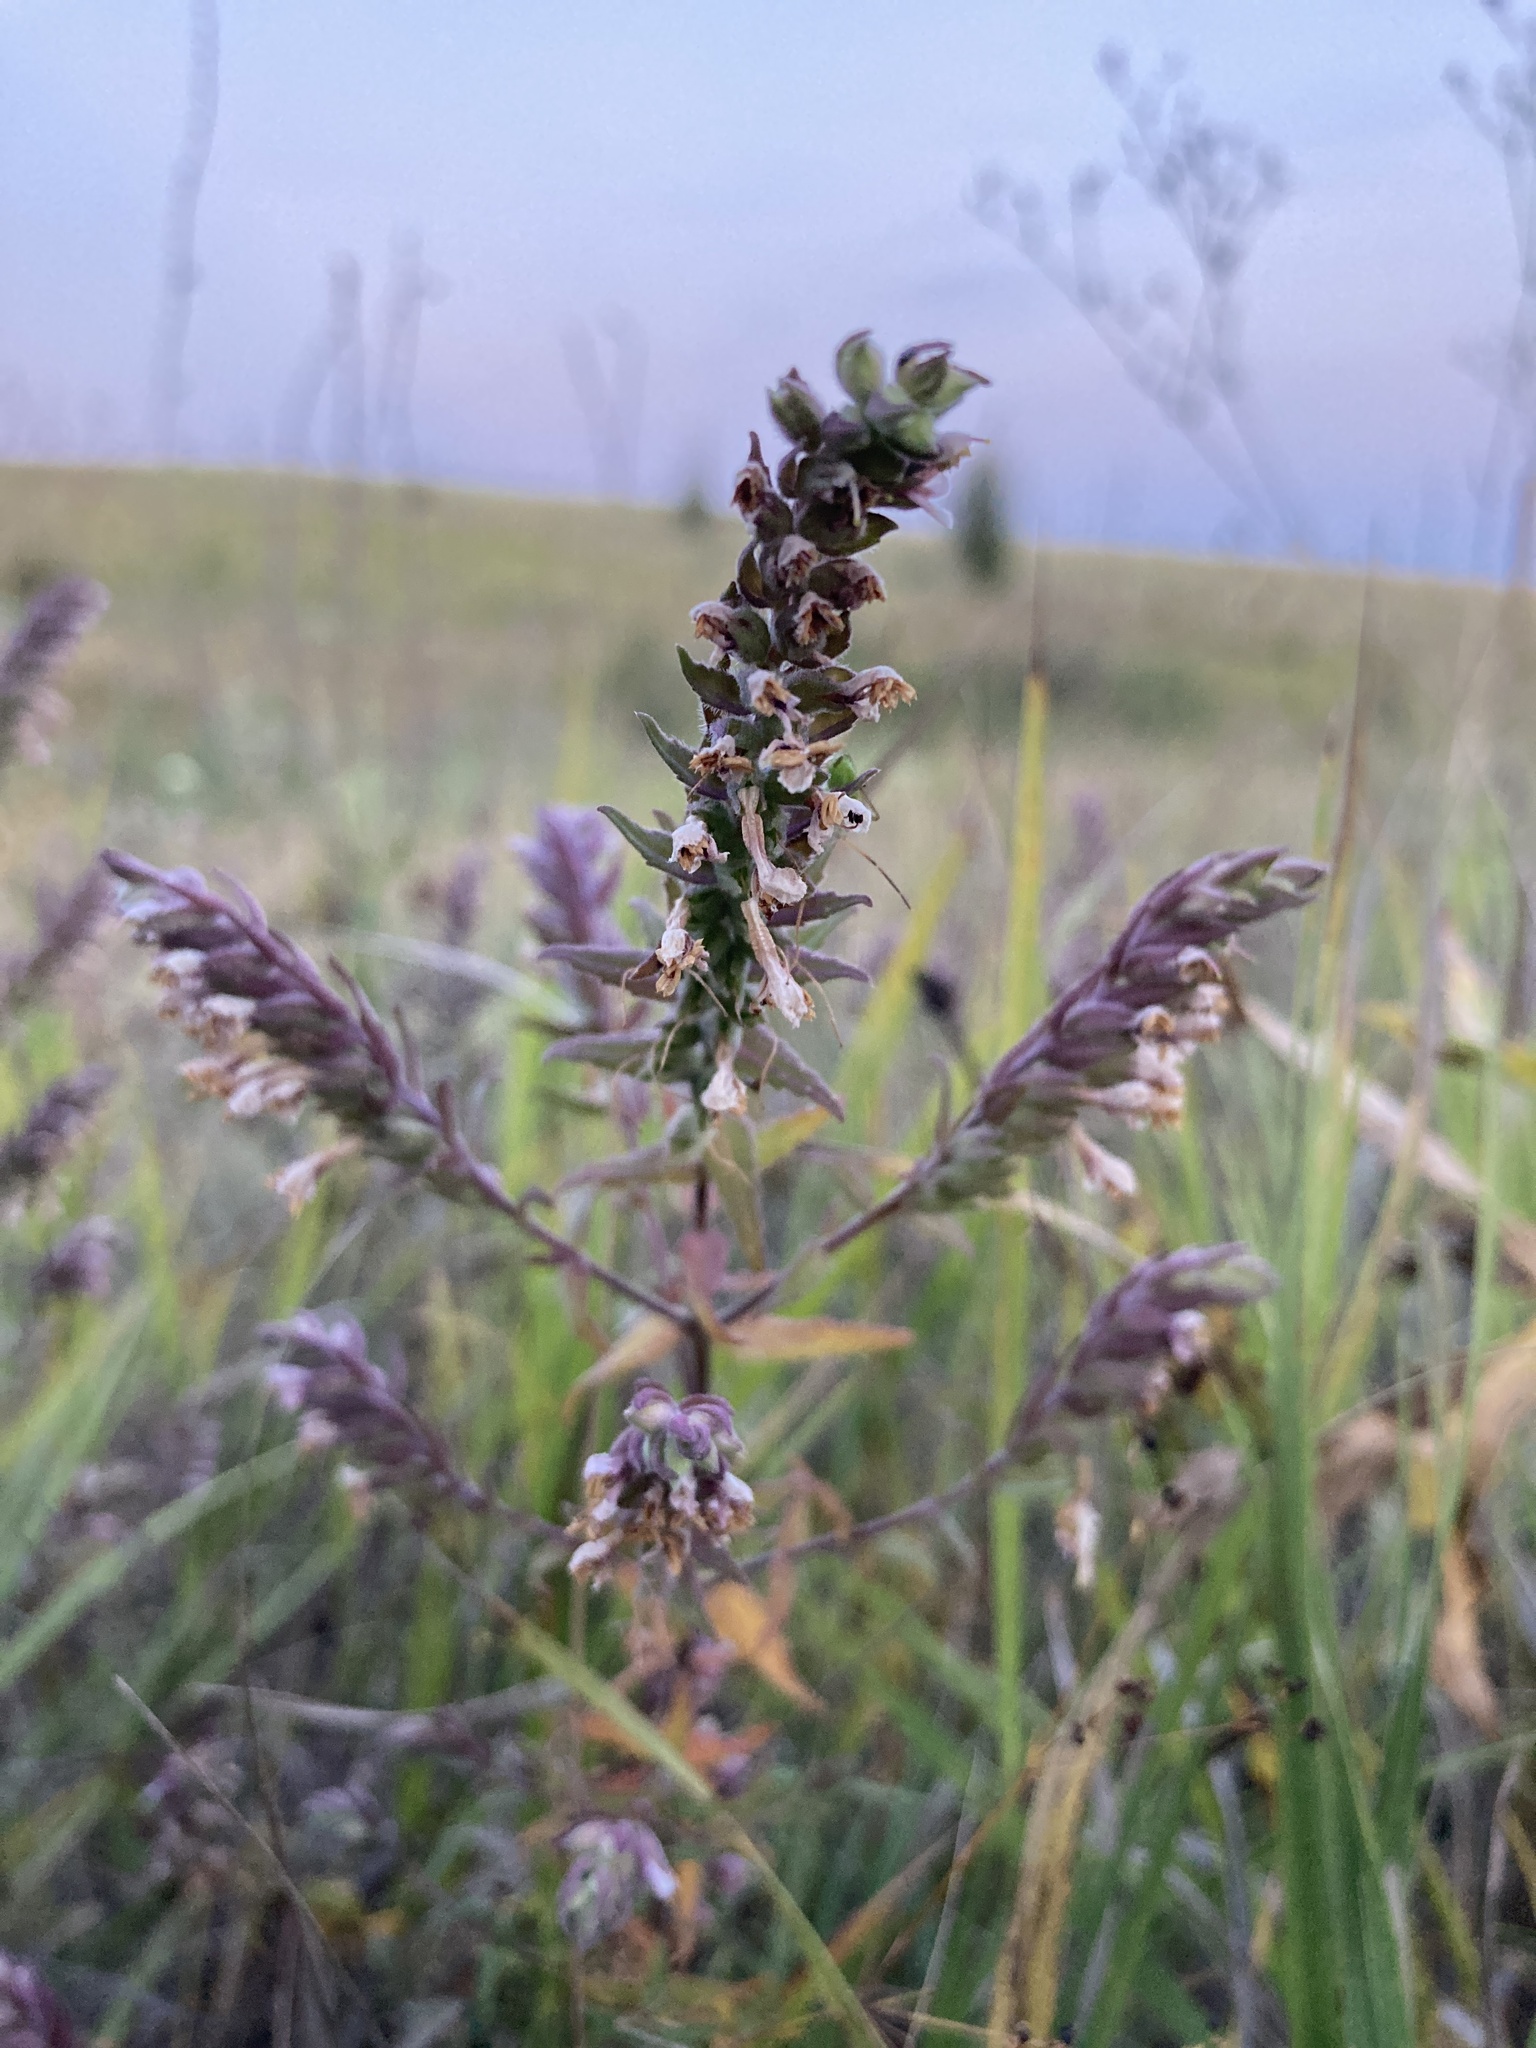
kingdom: Plantae
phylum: Tracheophyta
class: Magnoliopsida
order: Lamiales
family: Orobanchaceae
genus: Odontites
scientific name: Odontites vulgaris
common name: Broomrape
